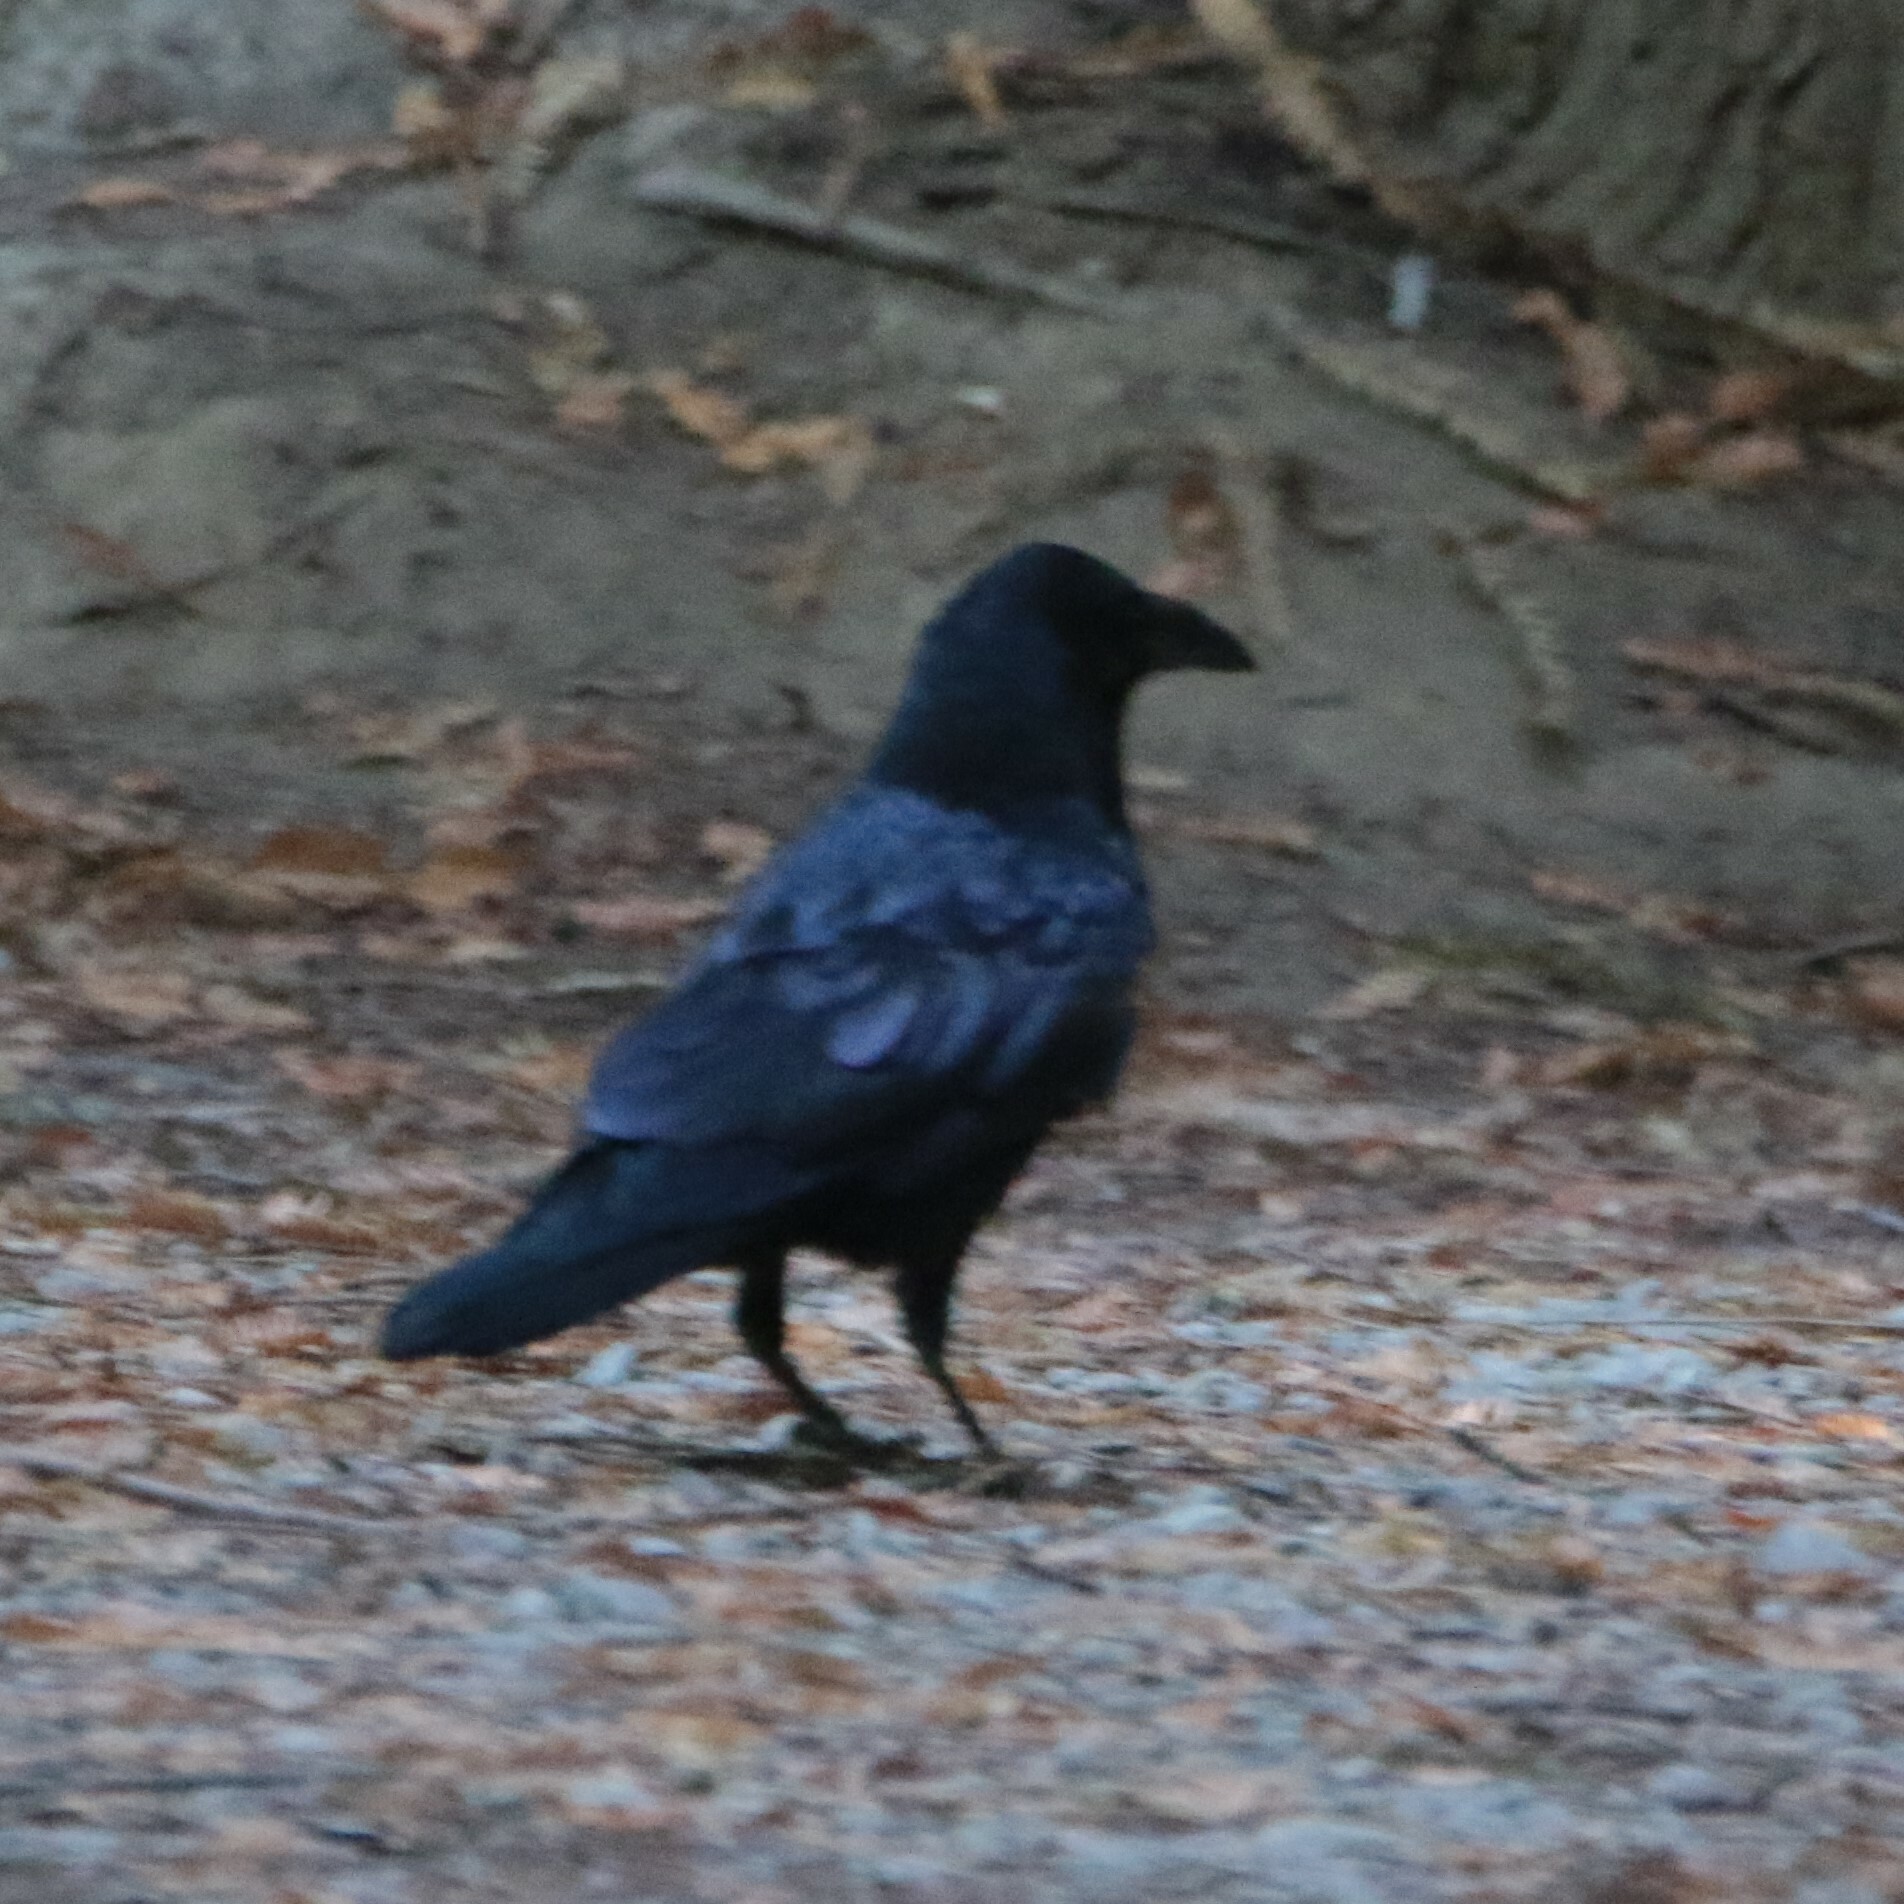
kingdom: Animalia
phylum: Chordata
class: Aves
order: Passeriformes
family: Corvidae
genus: Corvus
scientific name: Corvus corax
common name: Common raven
